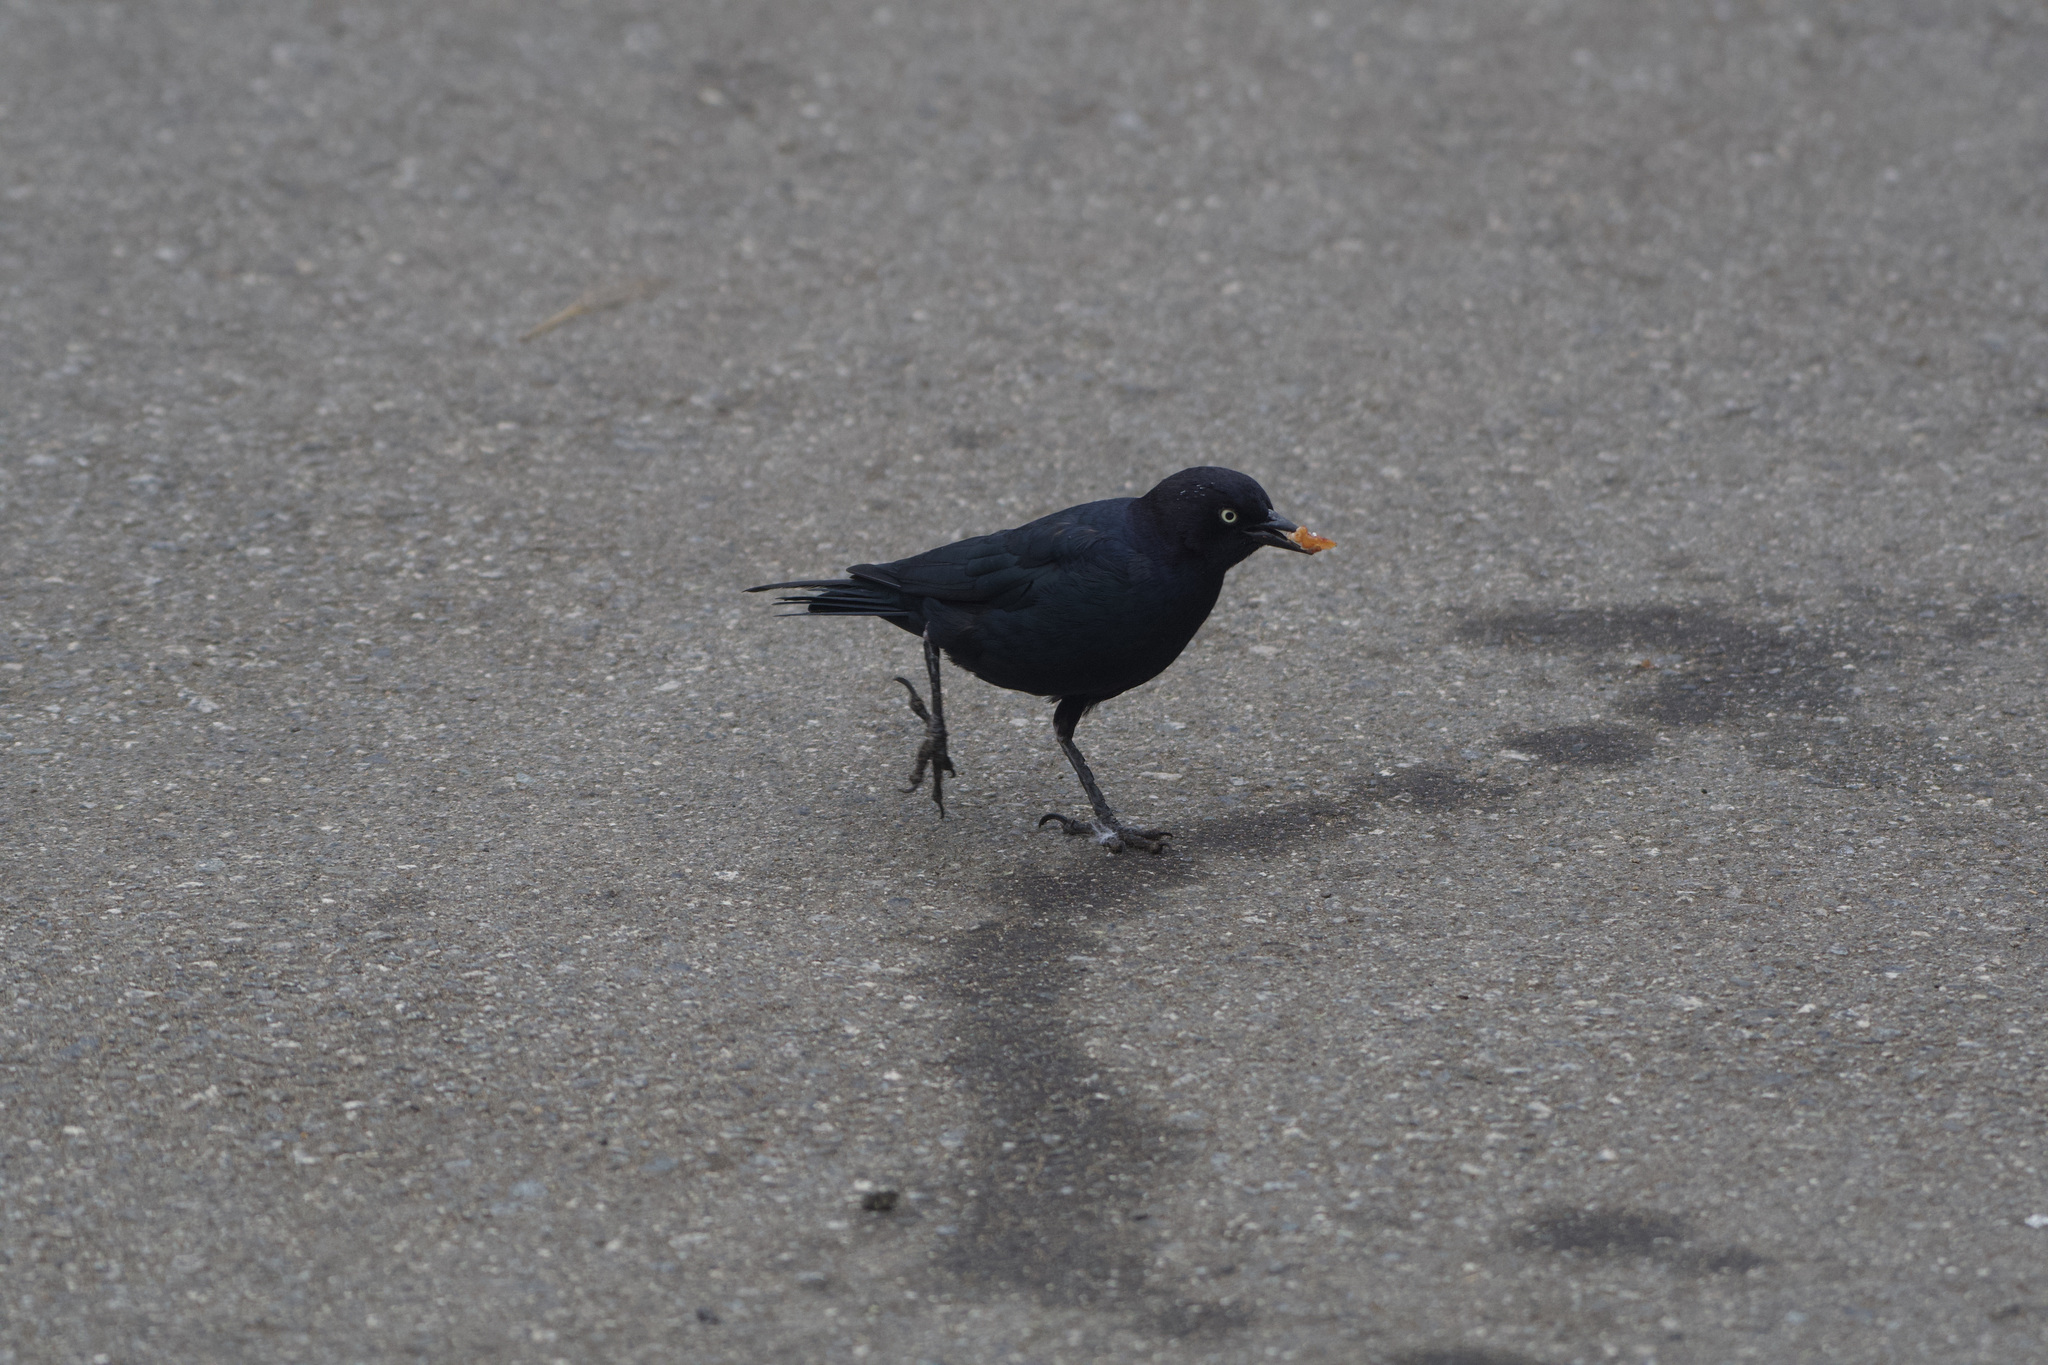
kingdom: Animalia
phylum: Chordata
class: Aves
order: Passeriformes
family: Icteridae
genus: Euphagus
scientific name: Euphagus cyanocephalus
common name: Brewer's blackbird
